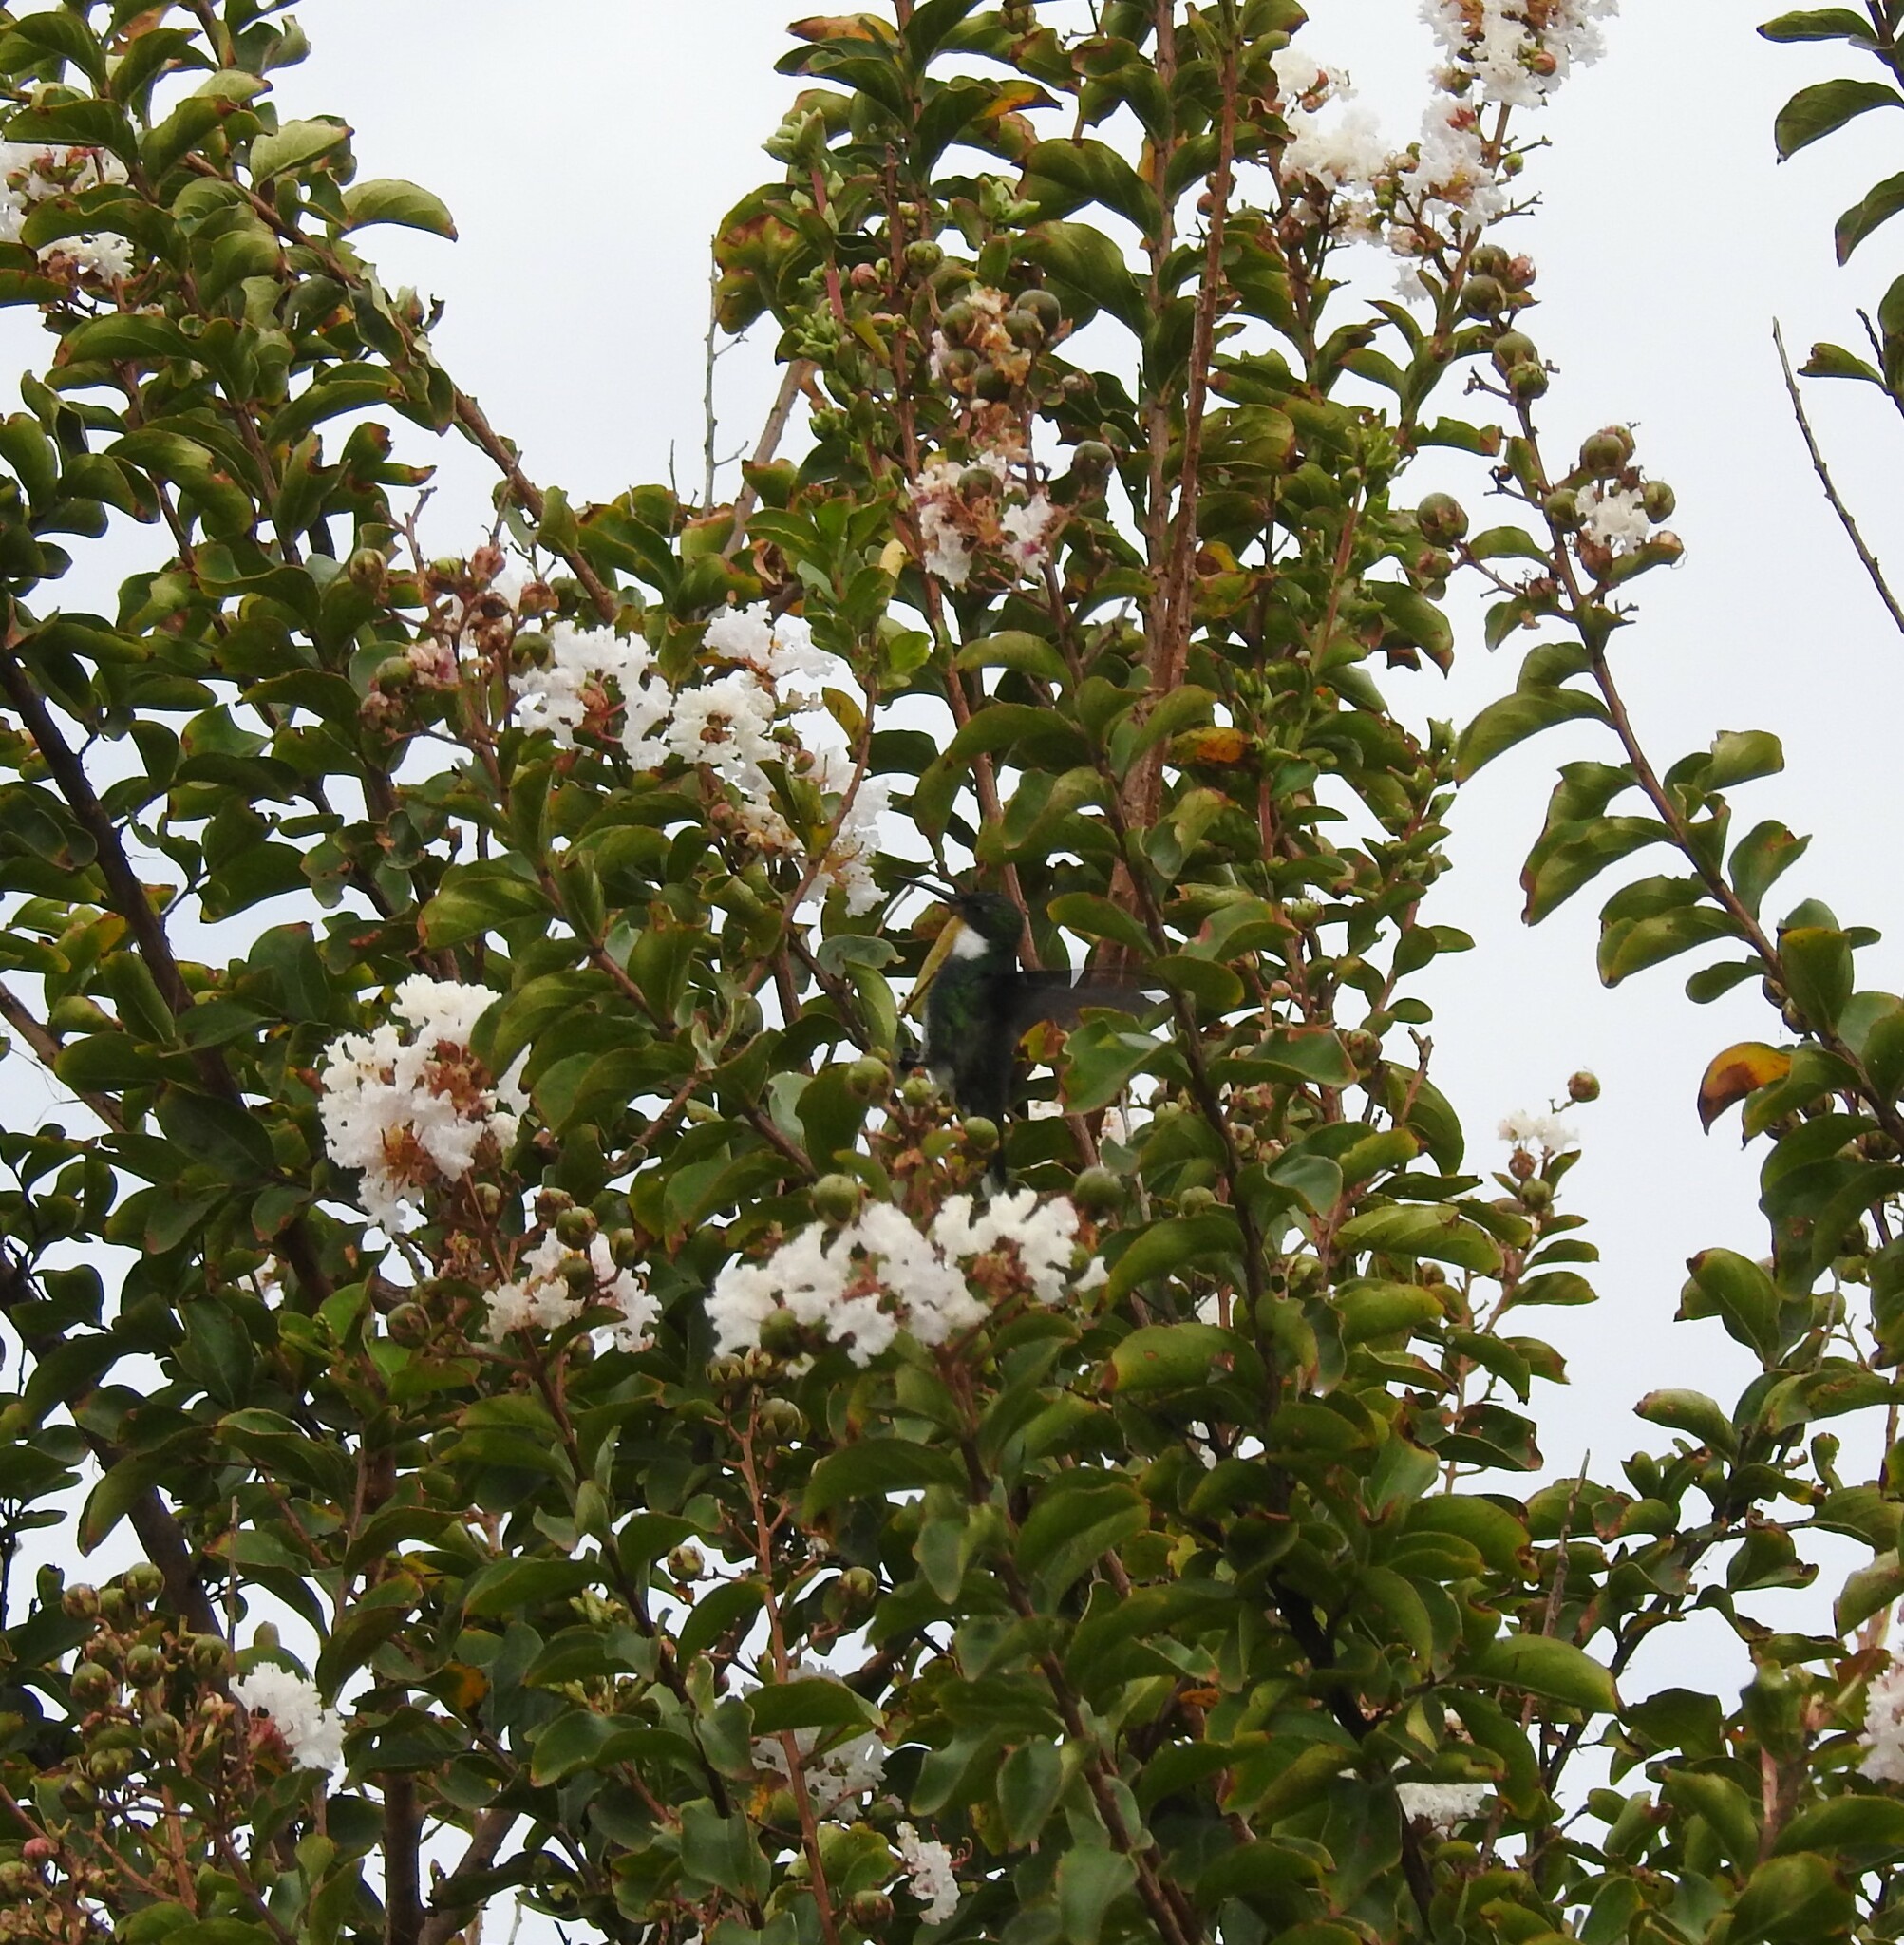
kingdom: Animalia
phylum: Chordata
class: Aves
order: Apodiformes
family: Trochilidae
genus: Leucochloris
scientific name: Leucochloris albicollis
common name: White-throated hummingbird
